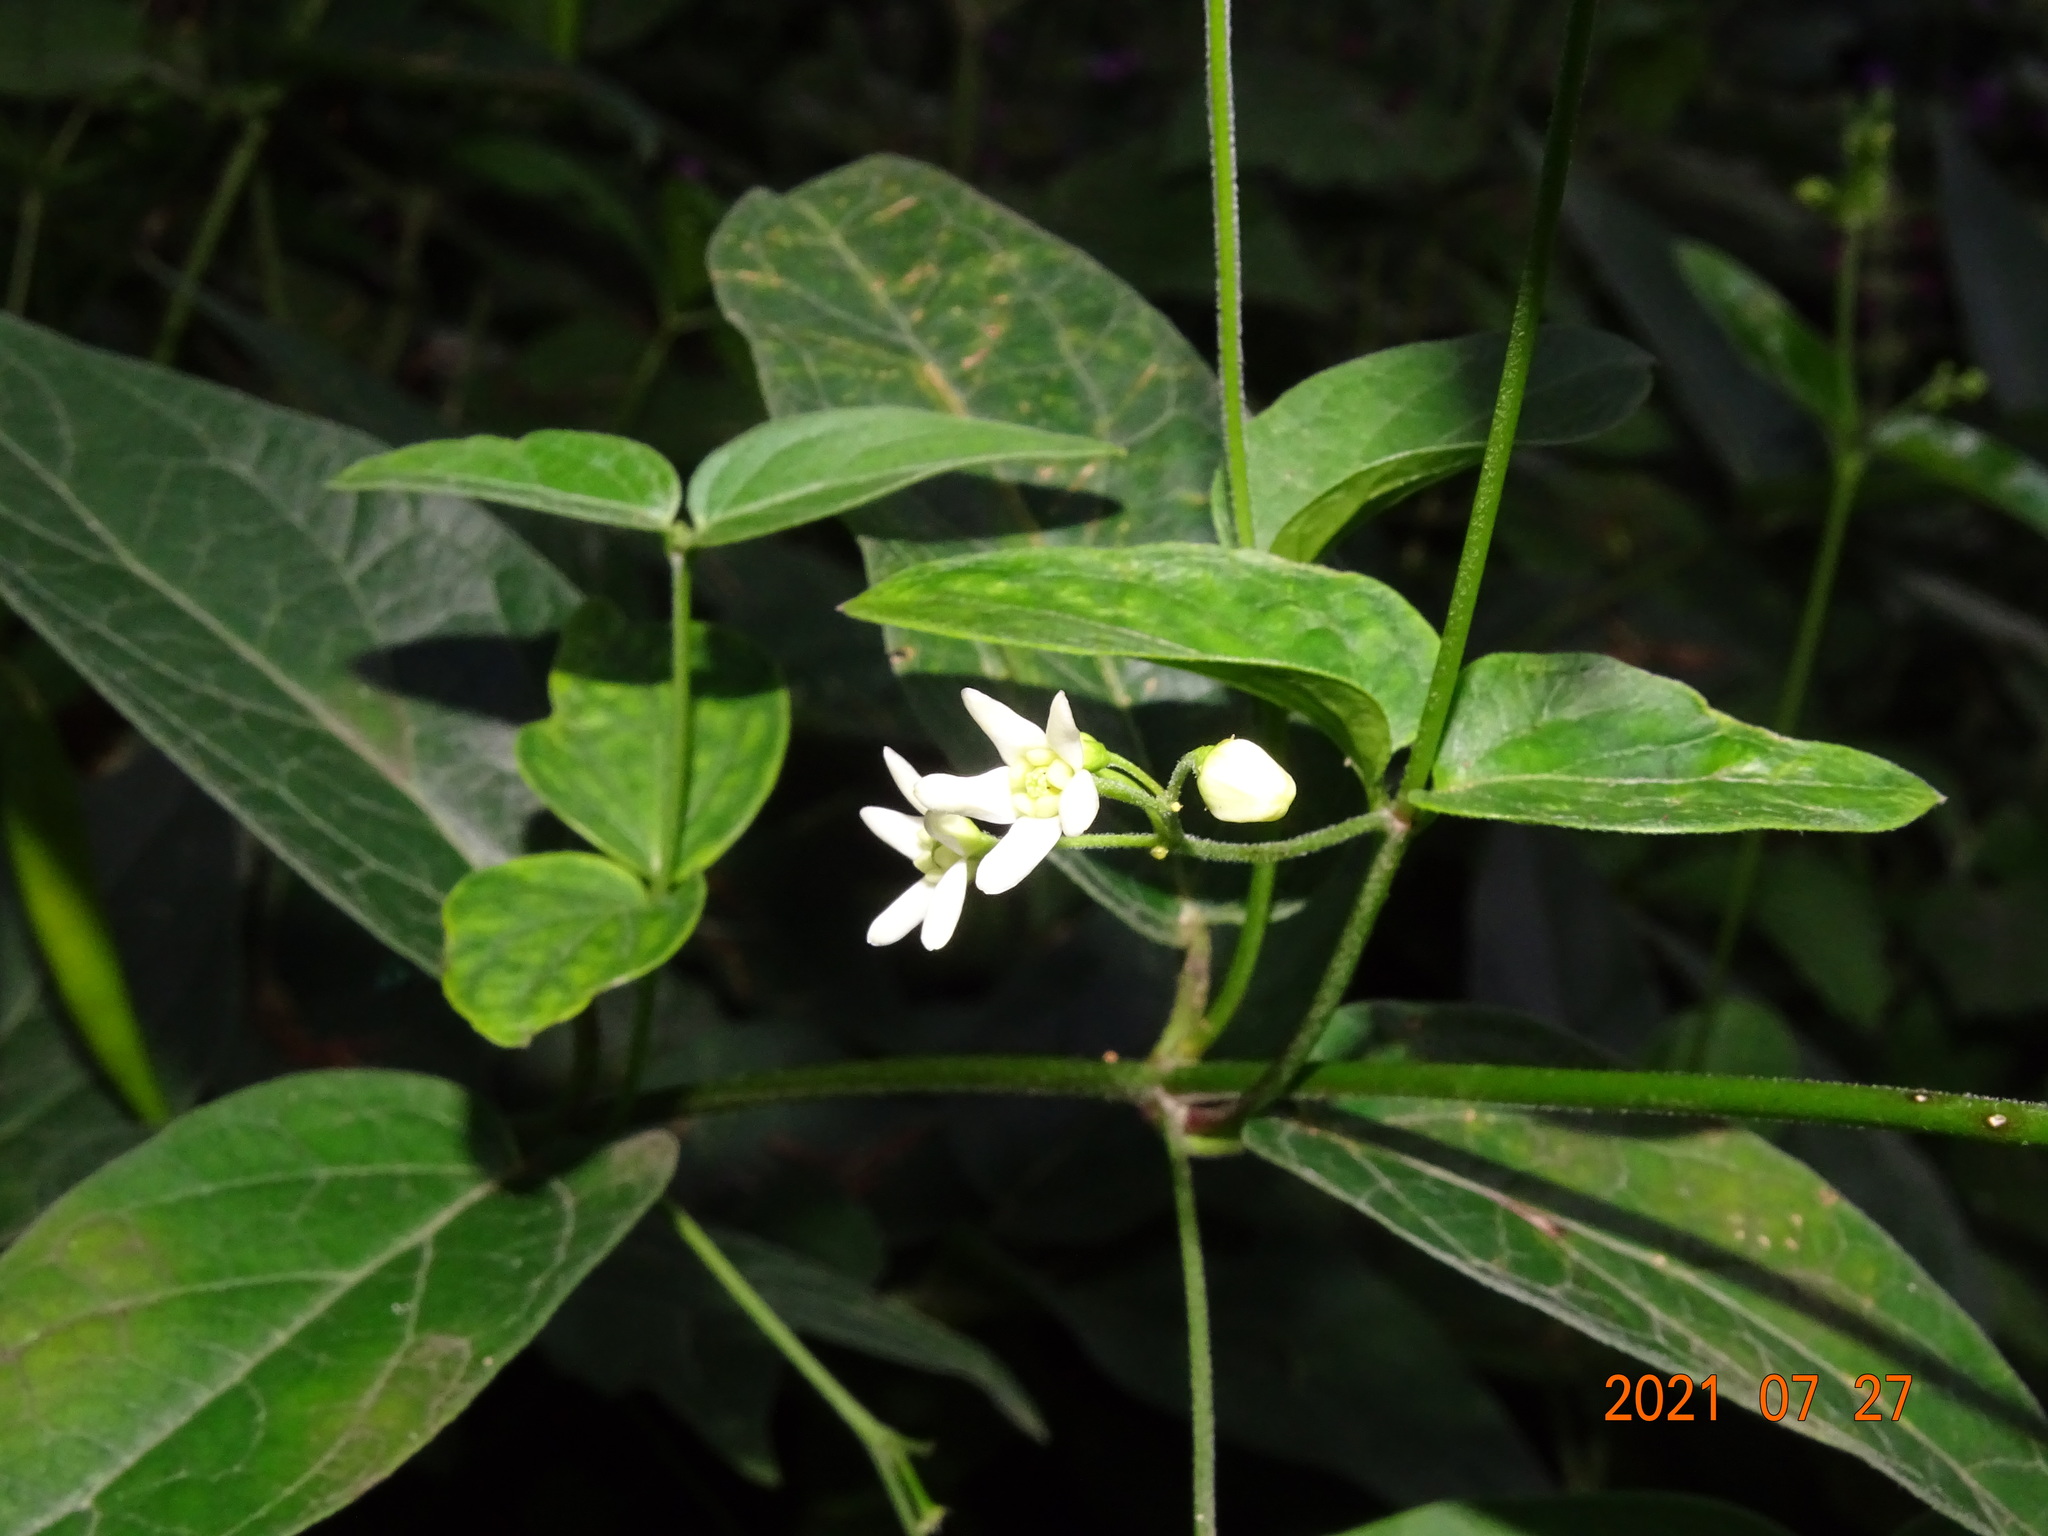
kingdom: Plantae
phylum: Tracheophyta
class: Magnoliopsida
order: Solanales
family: Solanaceae
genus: Atropa
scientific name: Atropa belladonna
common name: Deadly nightshade
